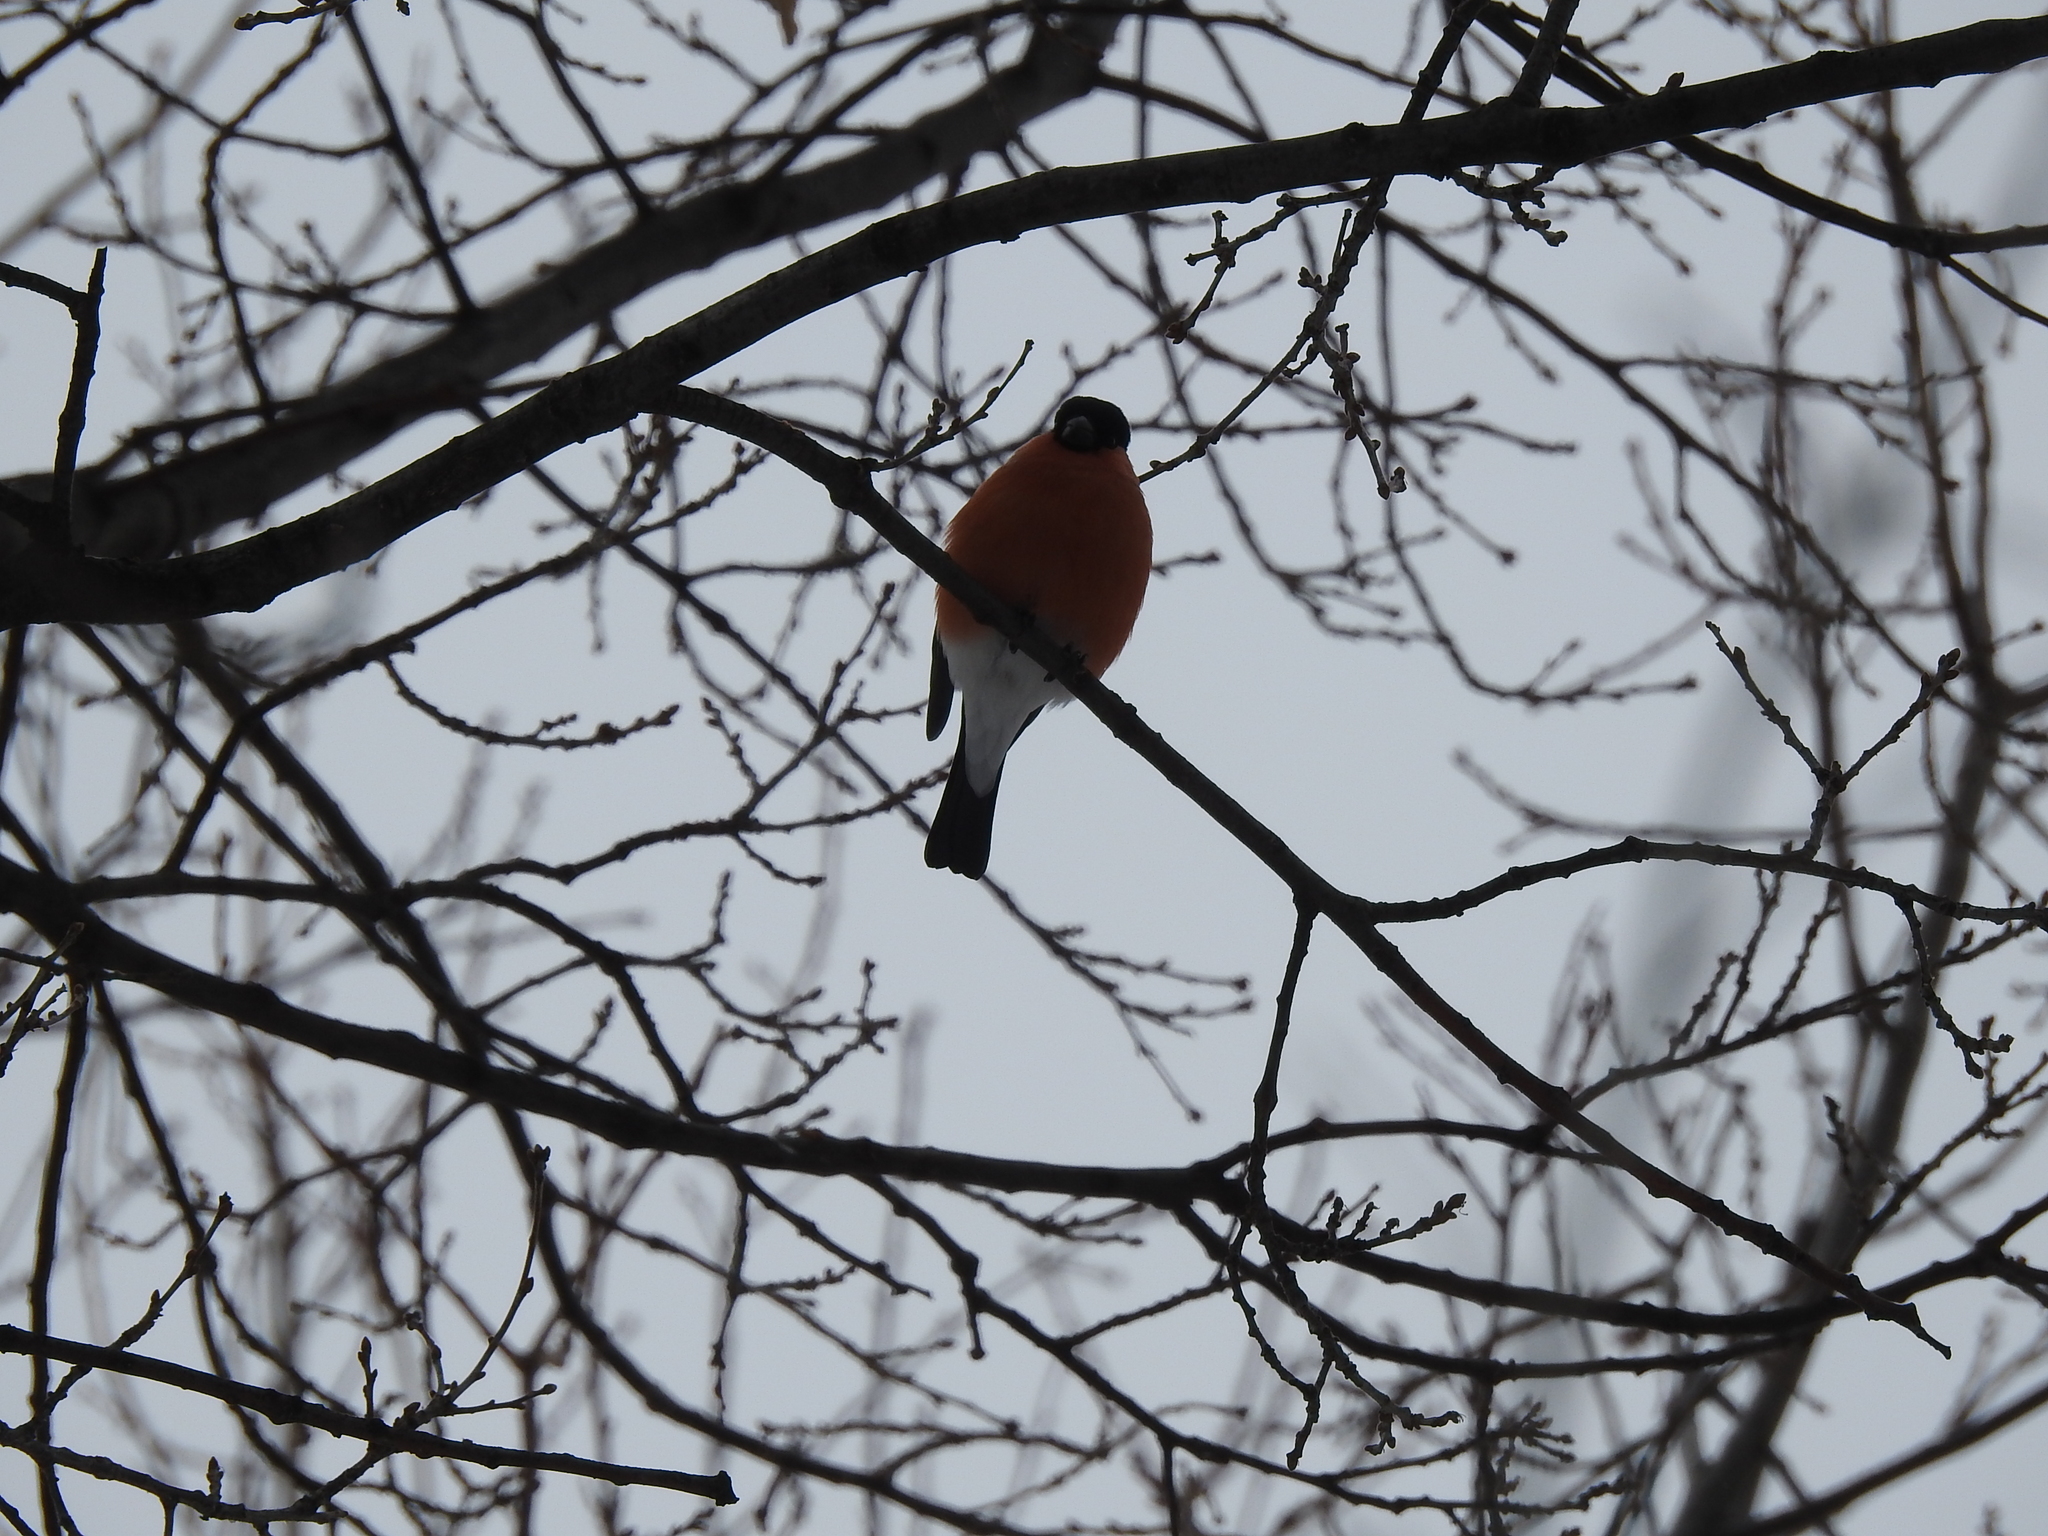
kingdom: Animalia
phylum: Chordata
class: Aves
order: Passeriformes
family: Fringillidae
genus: Pyrrhula
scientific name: Pyrrhula pyrrhula
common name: Eurasian bullfinch
